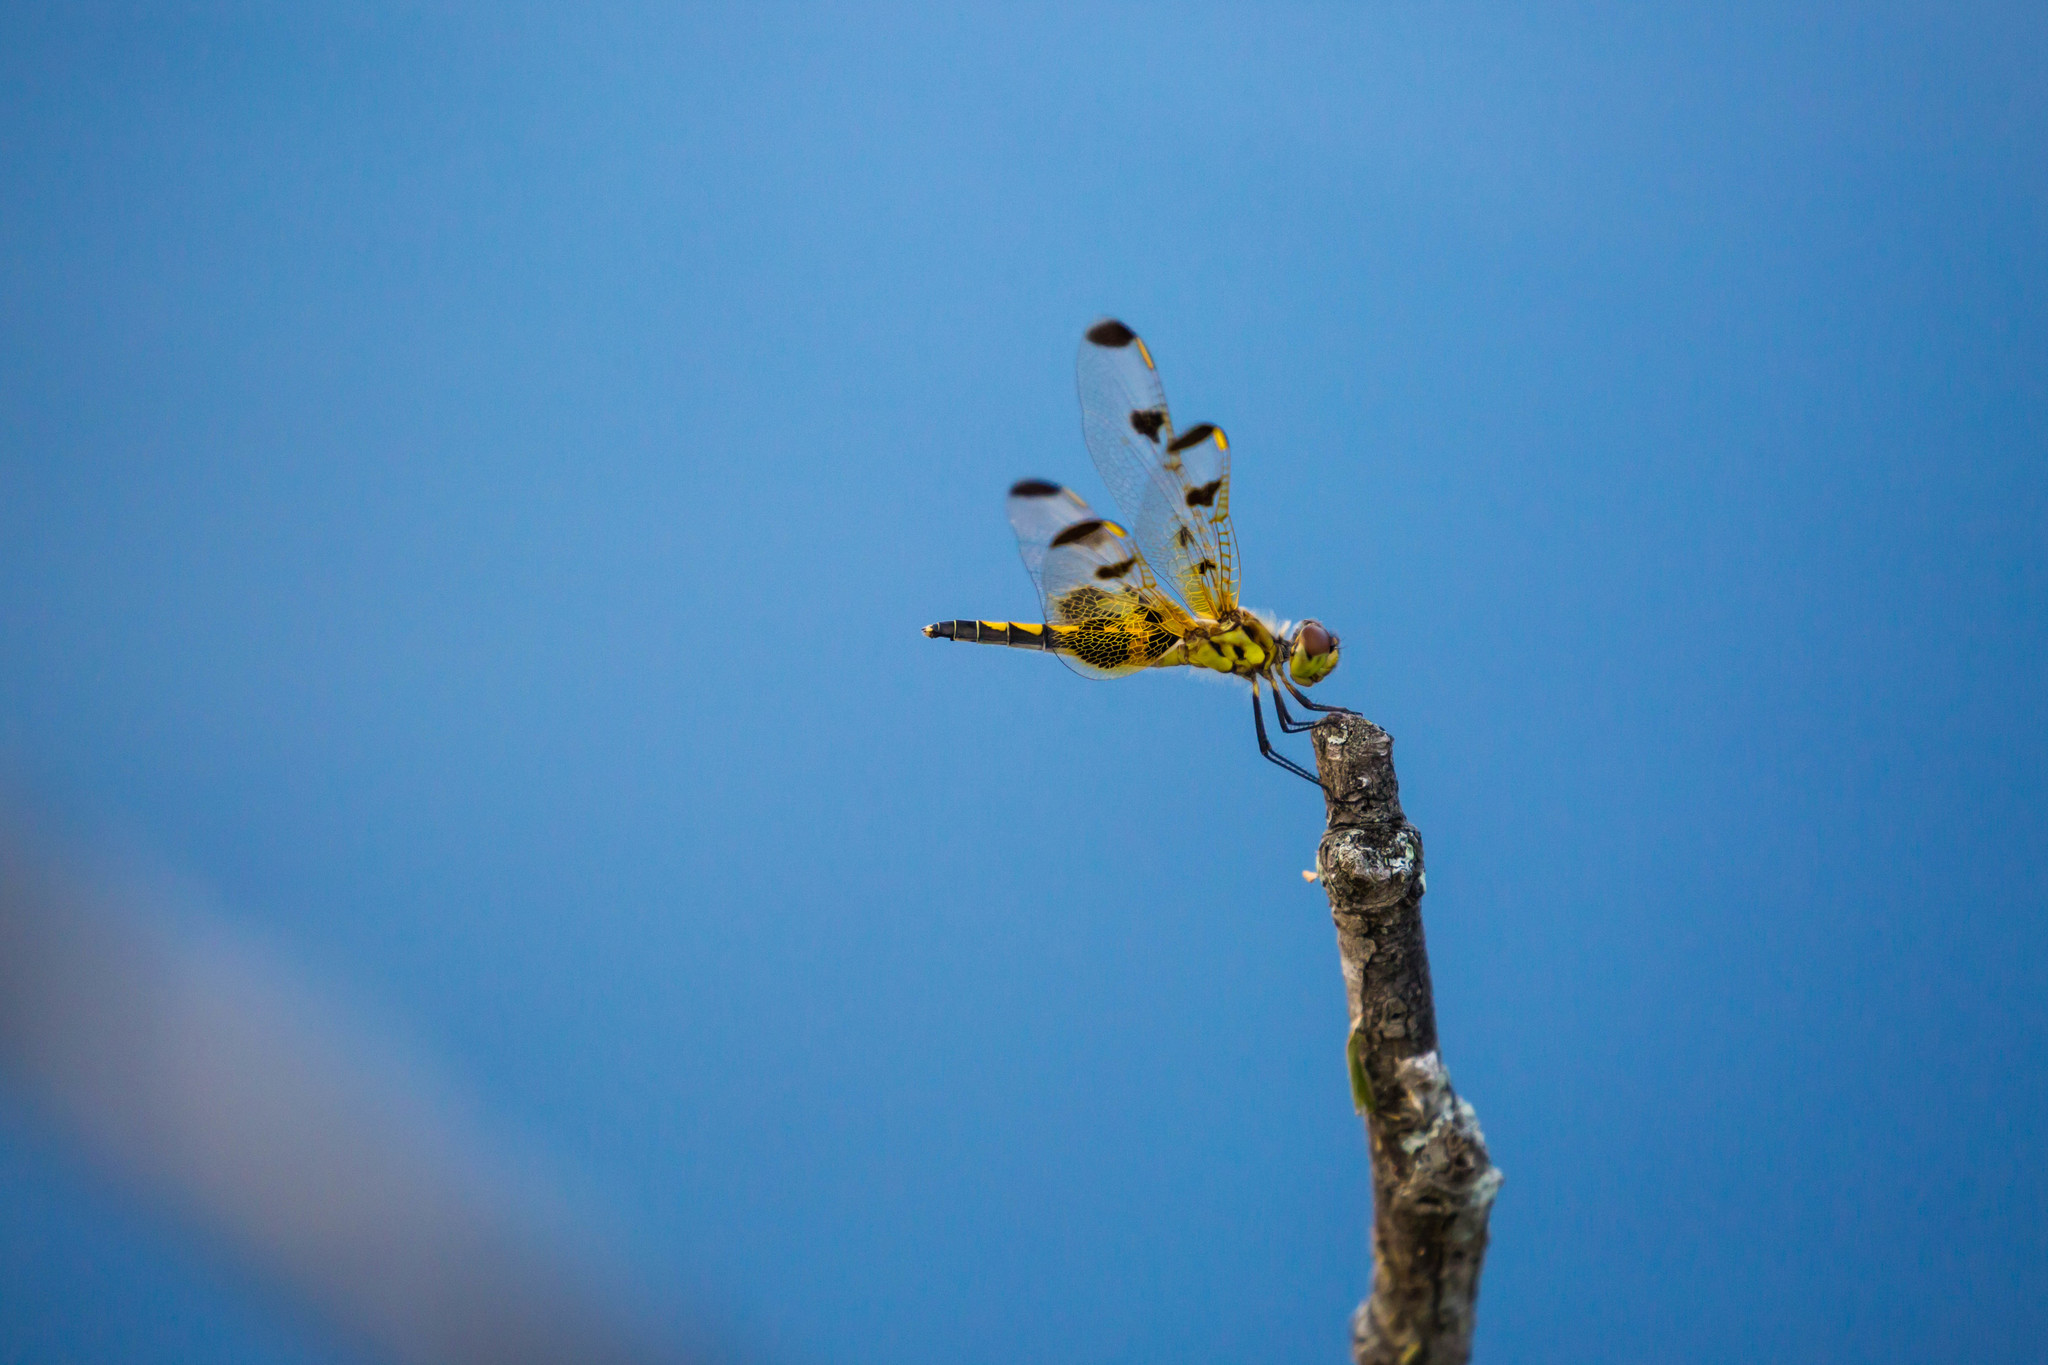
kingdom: Animalia
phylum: Arthropoda
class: Insecta
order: Odonata
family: Libellulidae
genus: Celithemis
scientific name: Celithemis elisa
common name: Calico pennant
